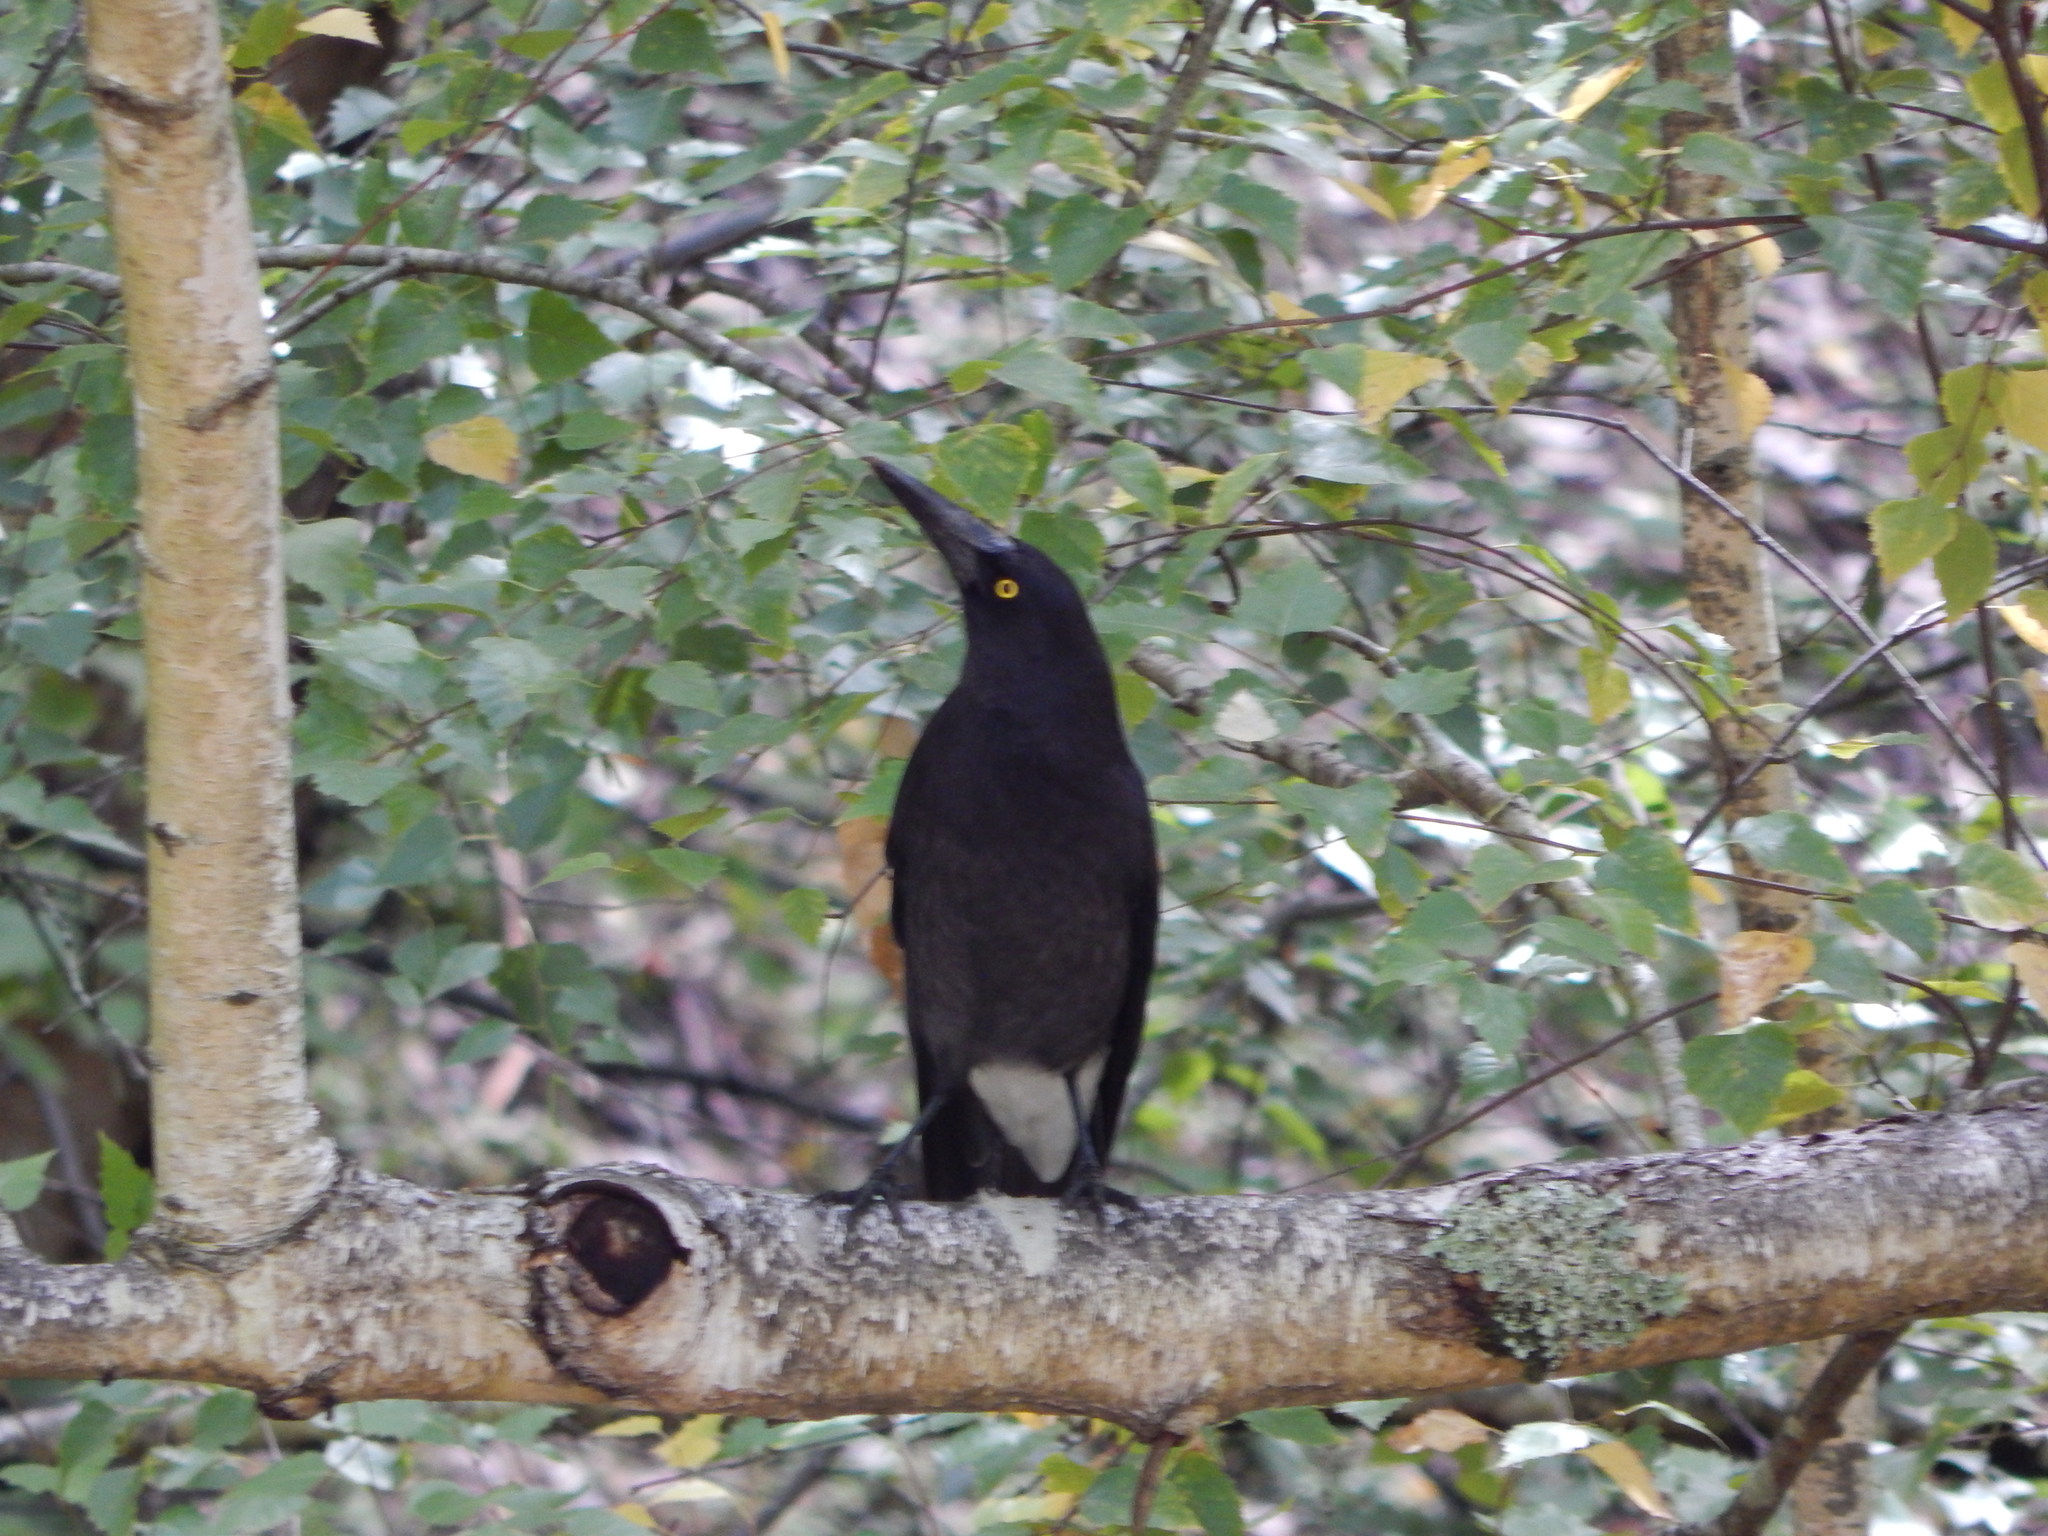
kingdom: Animalia
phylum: Chordata
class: Aves
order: Passeriformes
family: Cracticidae
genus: Strepera
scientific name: Strepera versicolor
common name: Grey currawong
